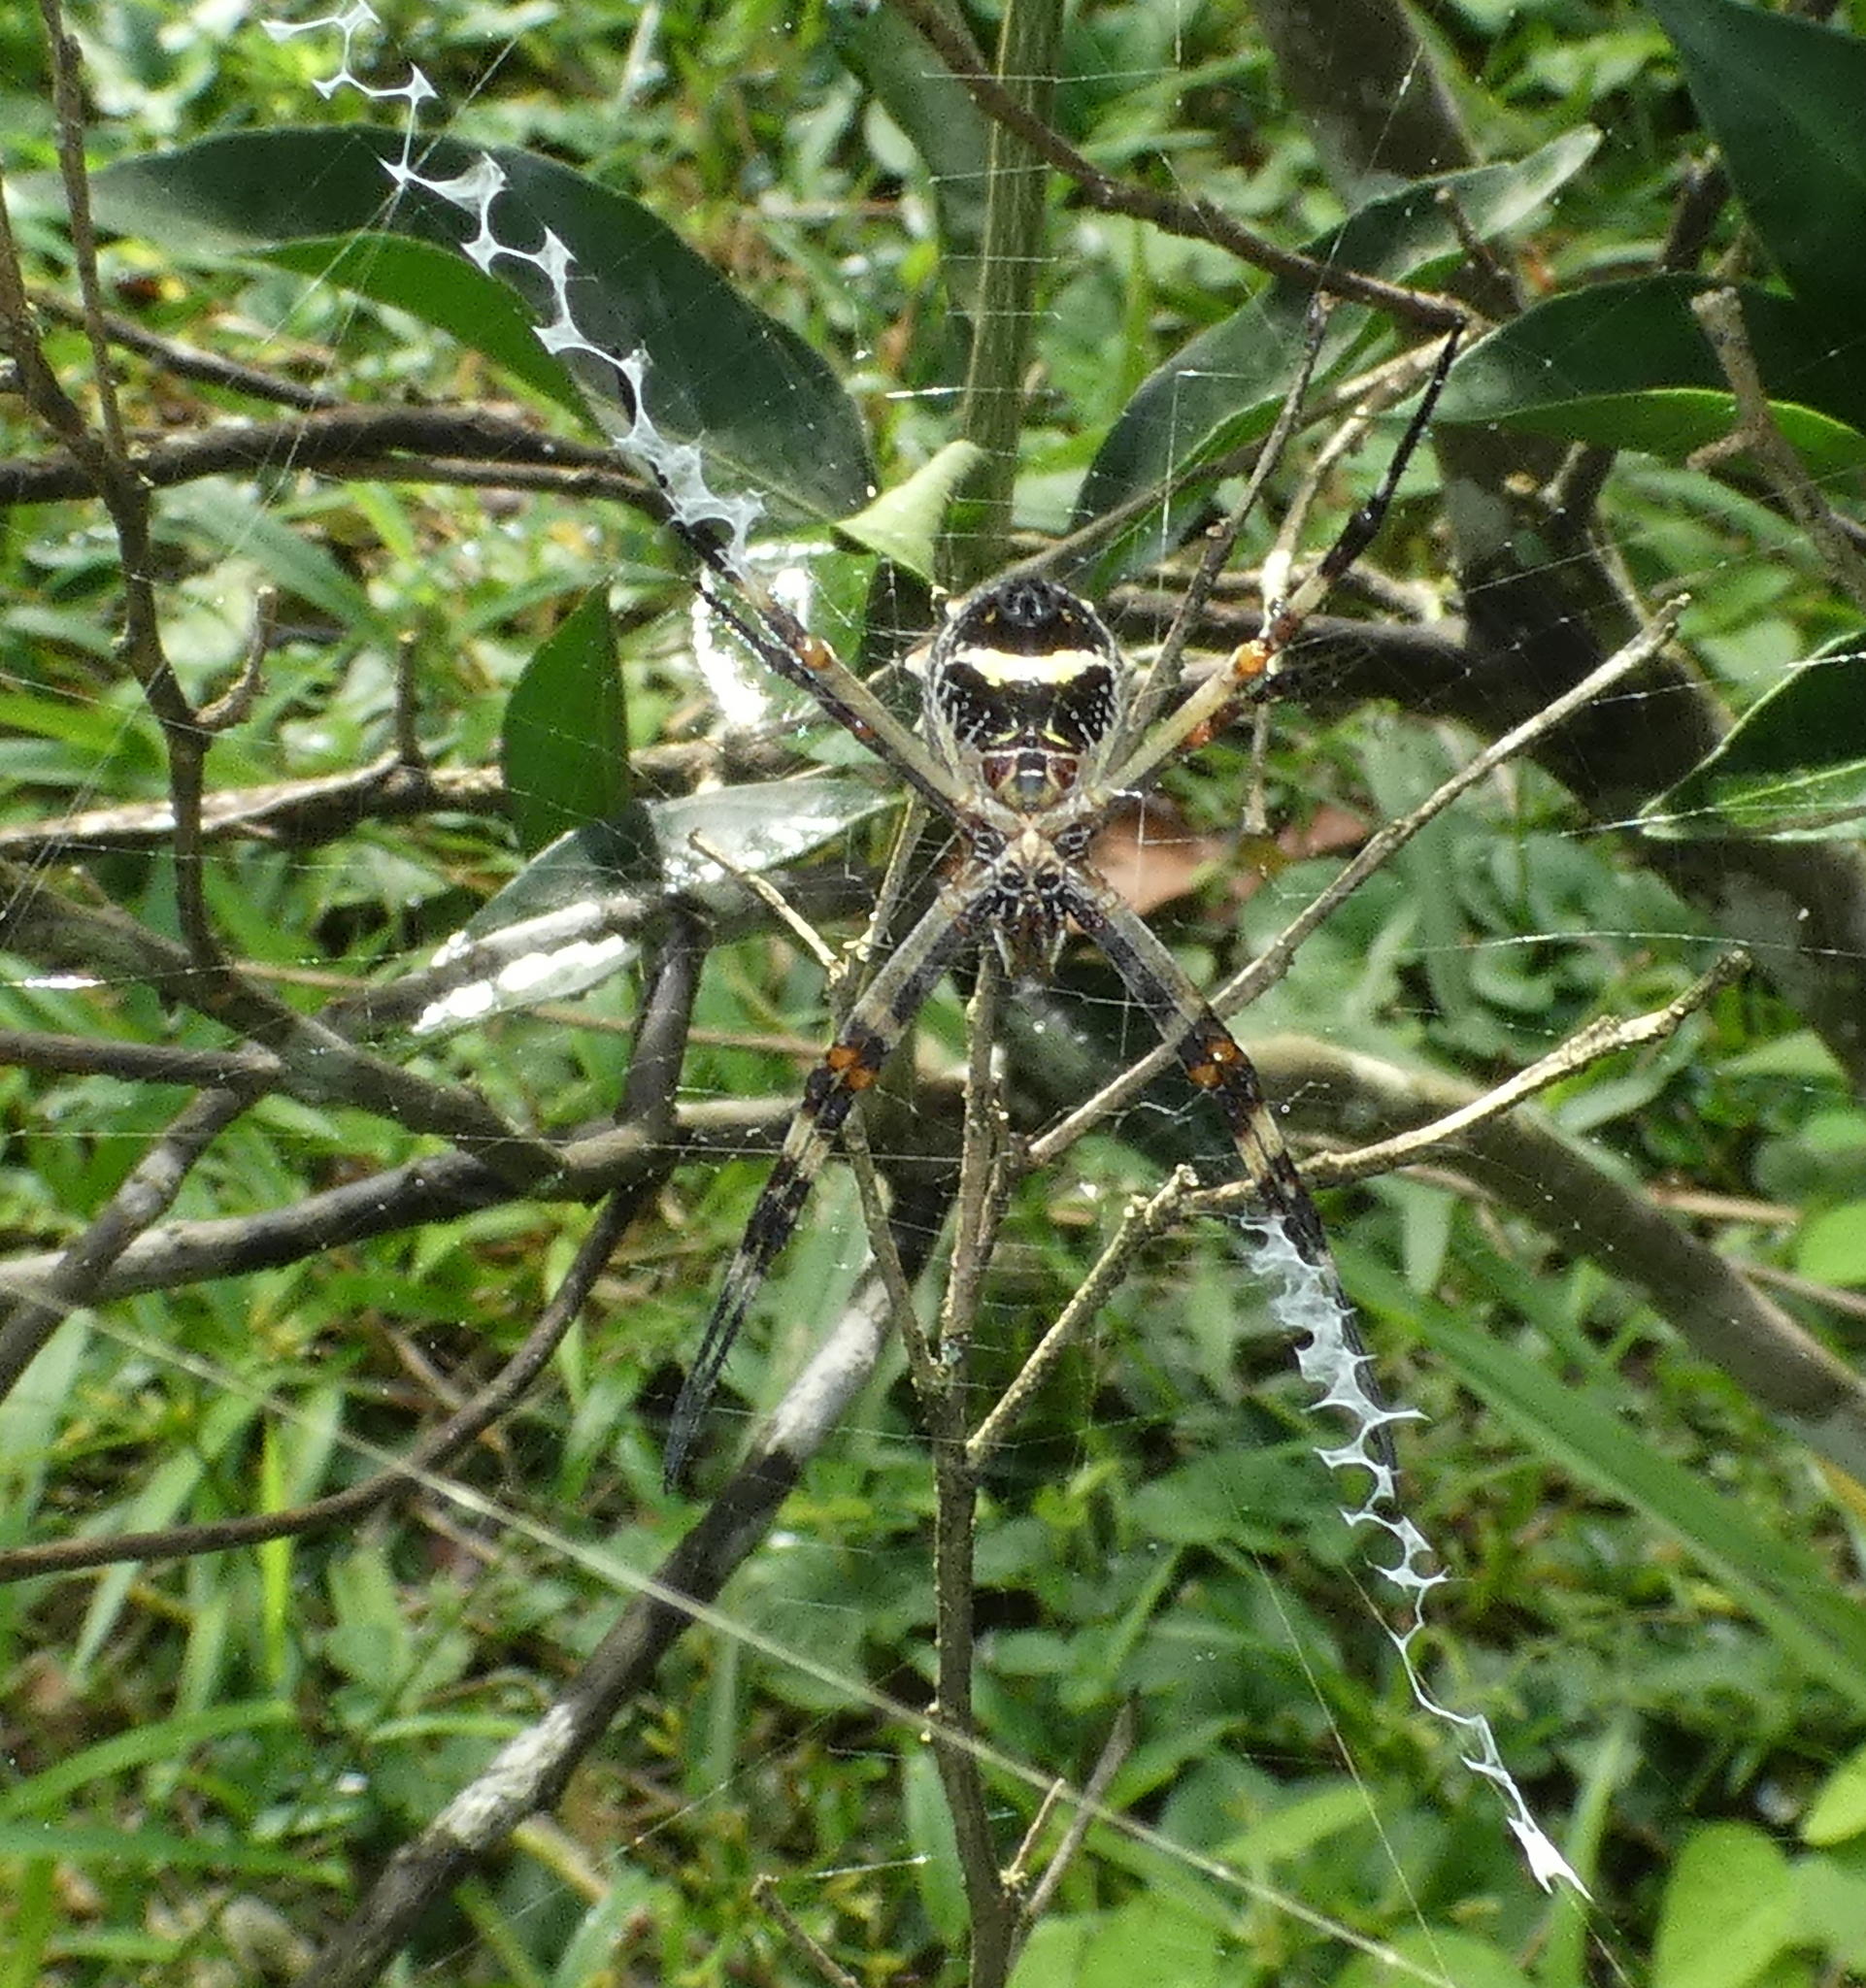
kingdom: Animalia
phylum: Arthropoda
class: Arachnida
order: Araneae
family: Araneidae
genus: Argiope
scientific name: Argiope argentata
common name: Orb weavers
